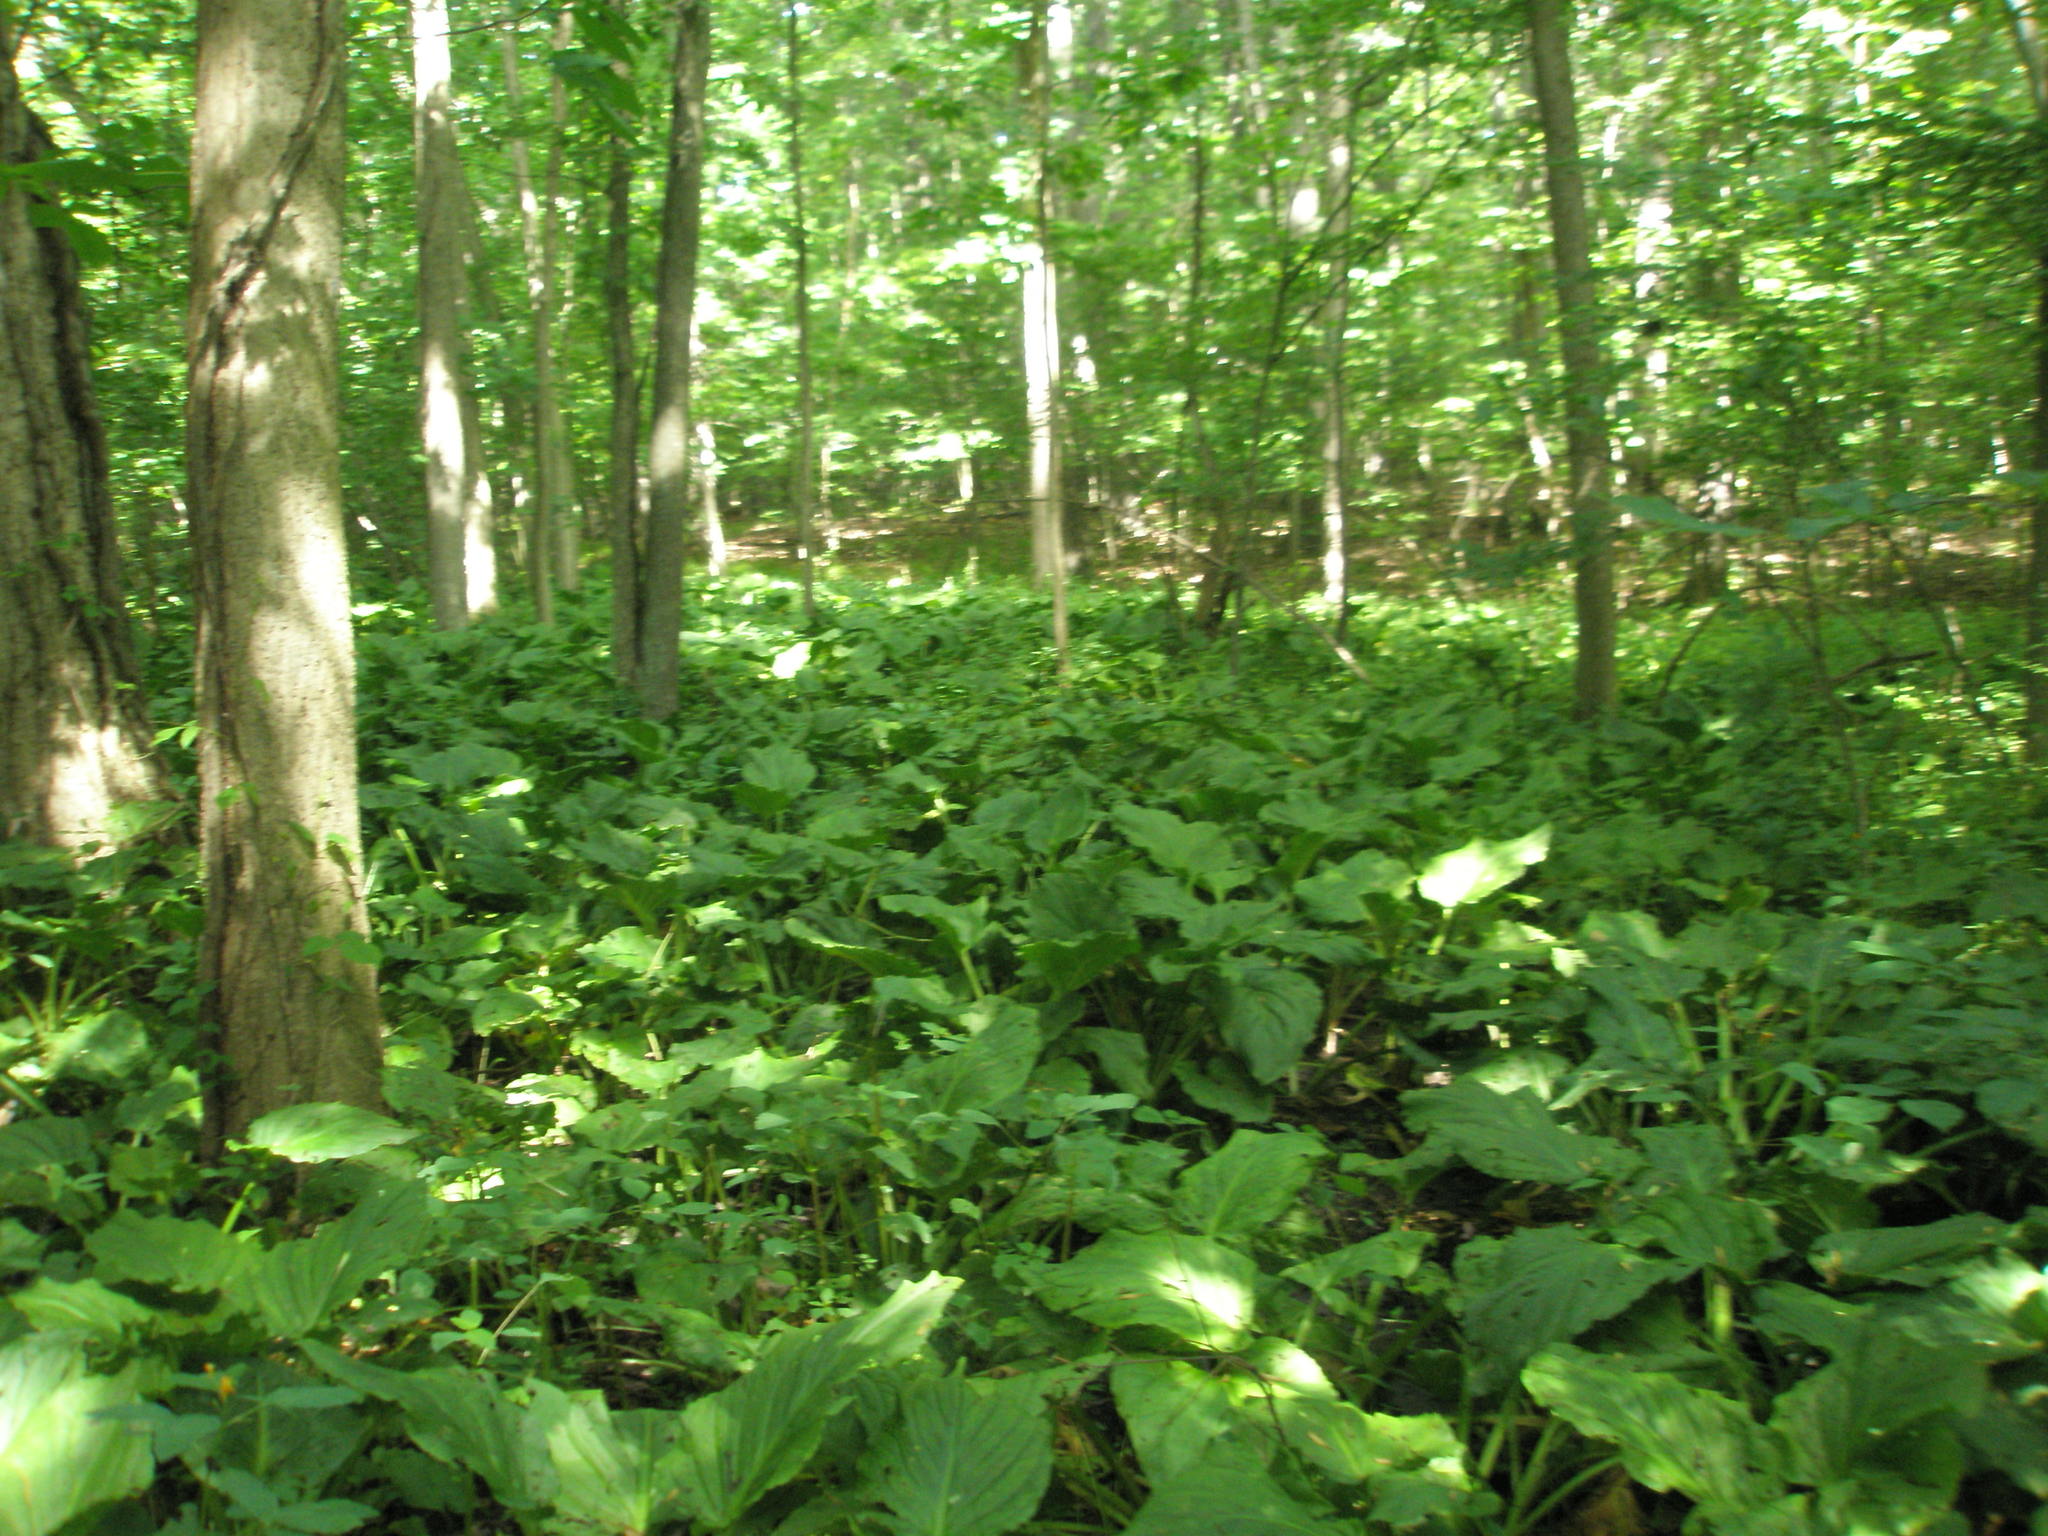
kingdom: Plantae
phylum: Tracheophyta
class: Liliopsida
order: Alismatales
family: Araceae
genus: Symplocarpus
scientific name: Symplocarpus foetidus
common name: Eastern skunk cabbage
